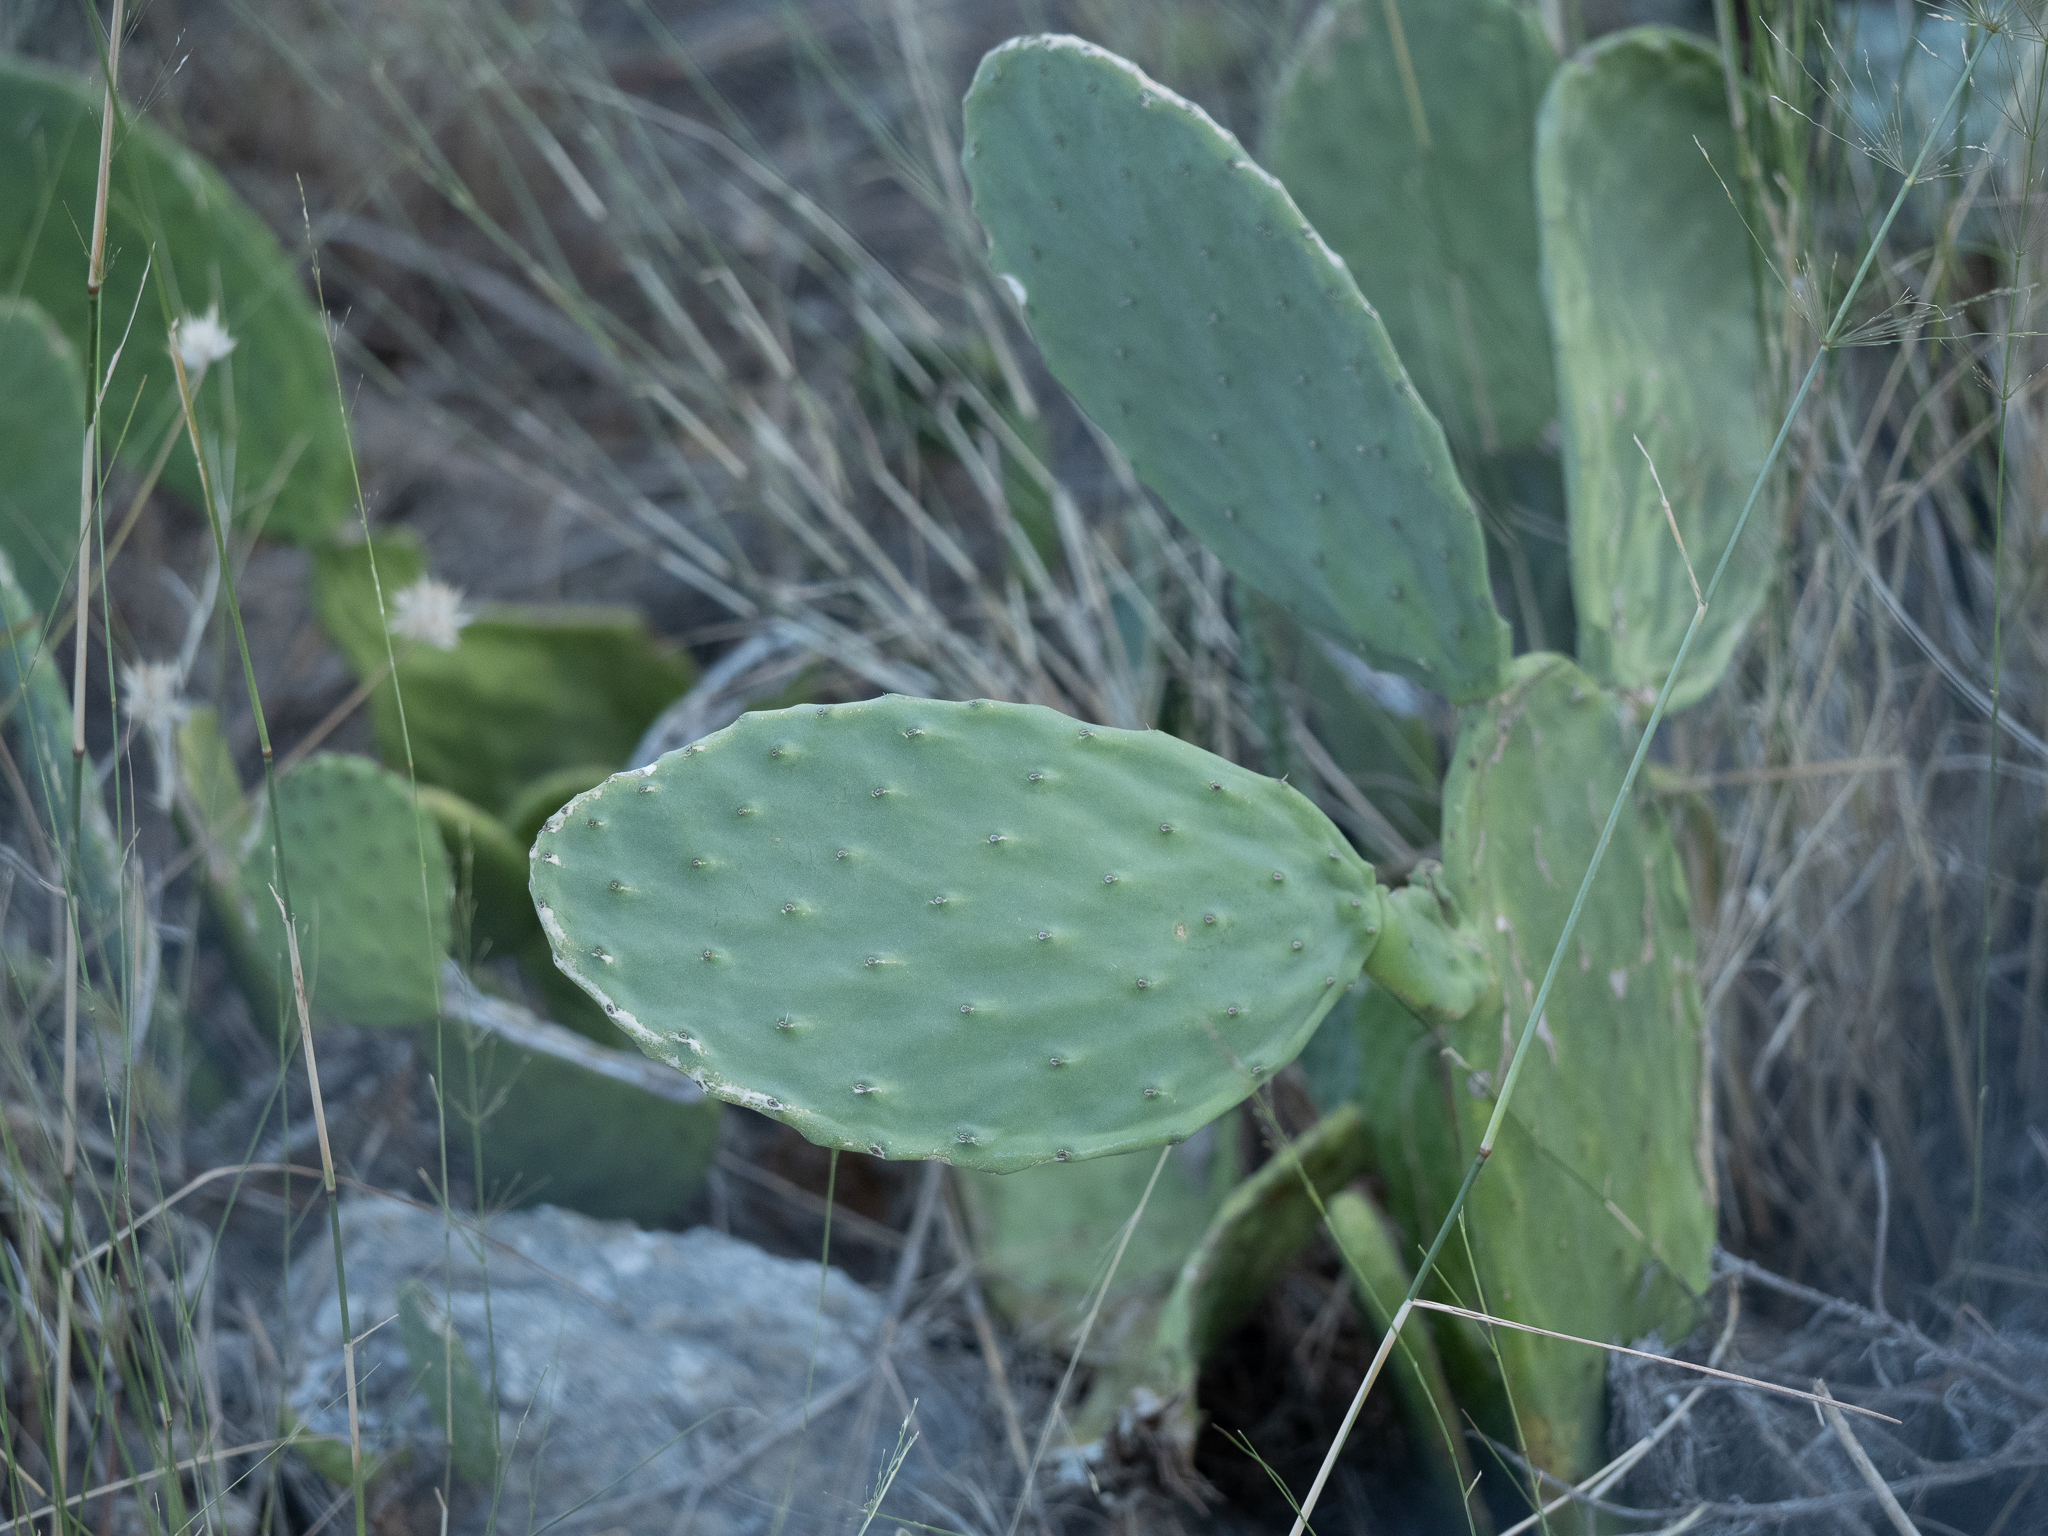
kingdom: Plantae
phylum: Tracheophyta
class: Magnoliopsida
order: Caryophyllales
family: Cactaceae
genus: Opuntia
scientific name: Opuntia ficus-indica
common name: Barbary fig
